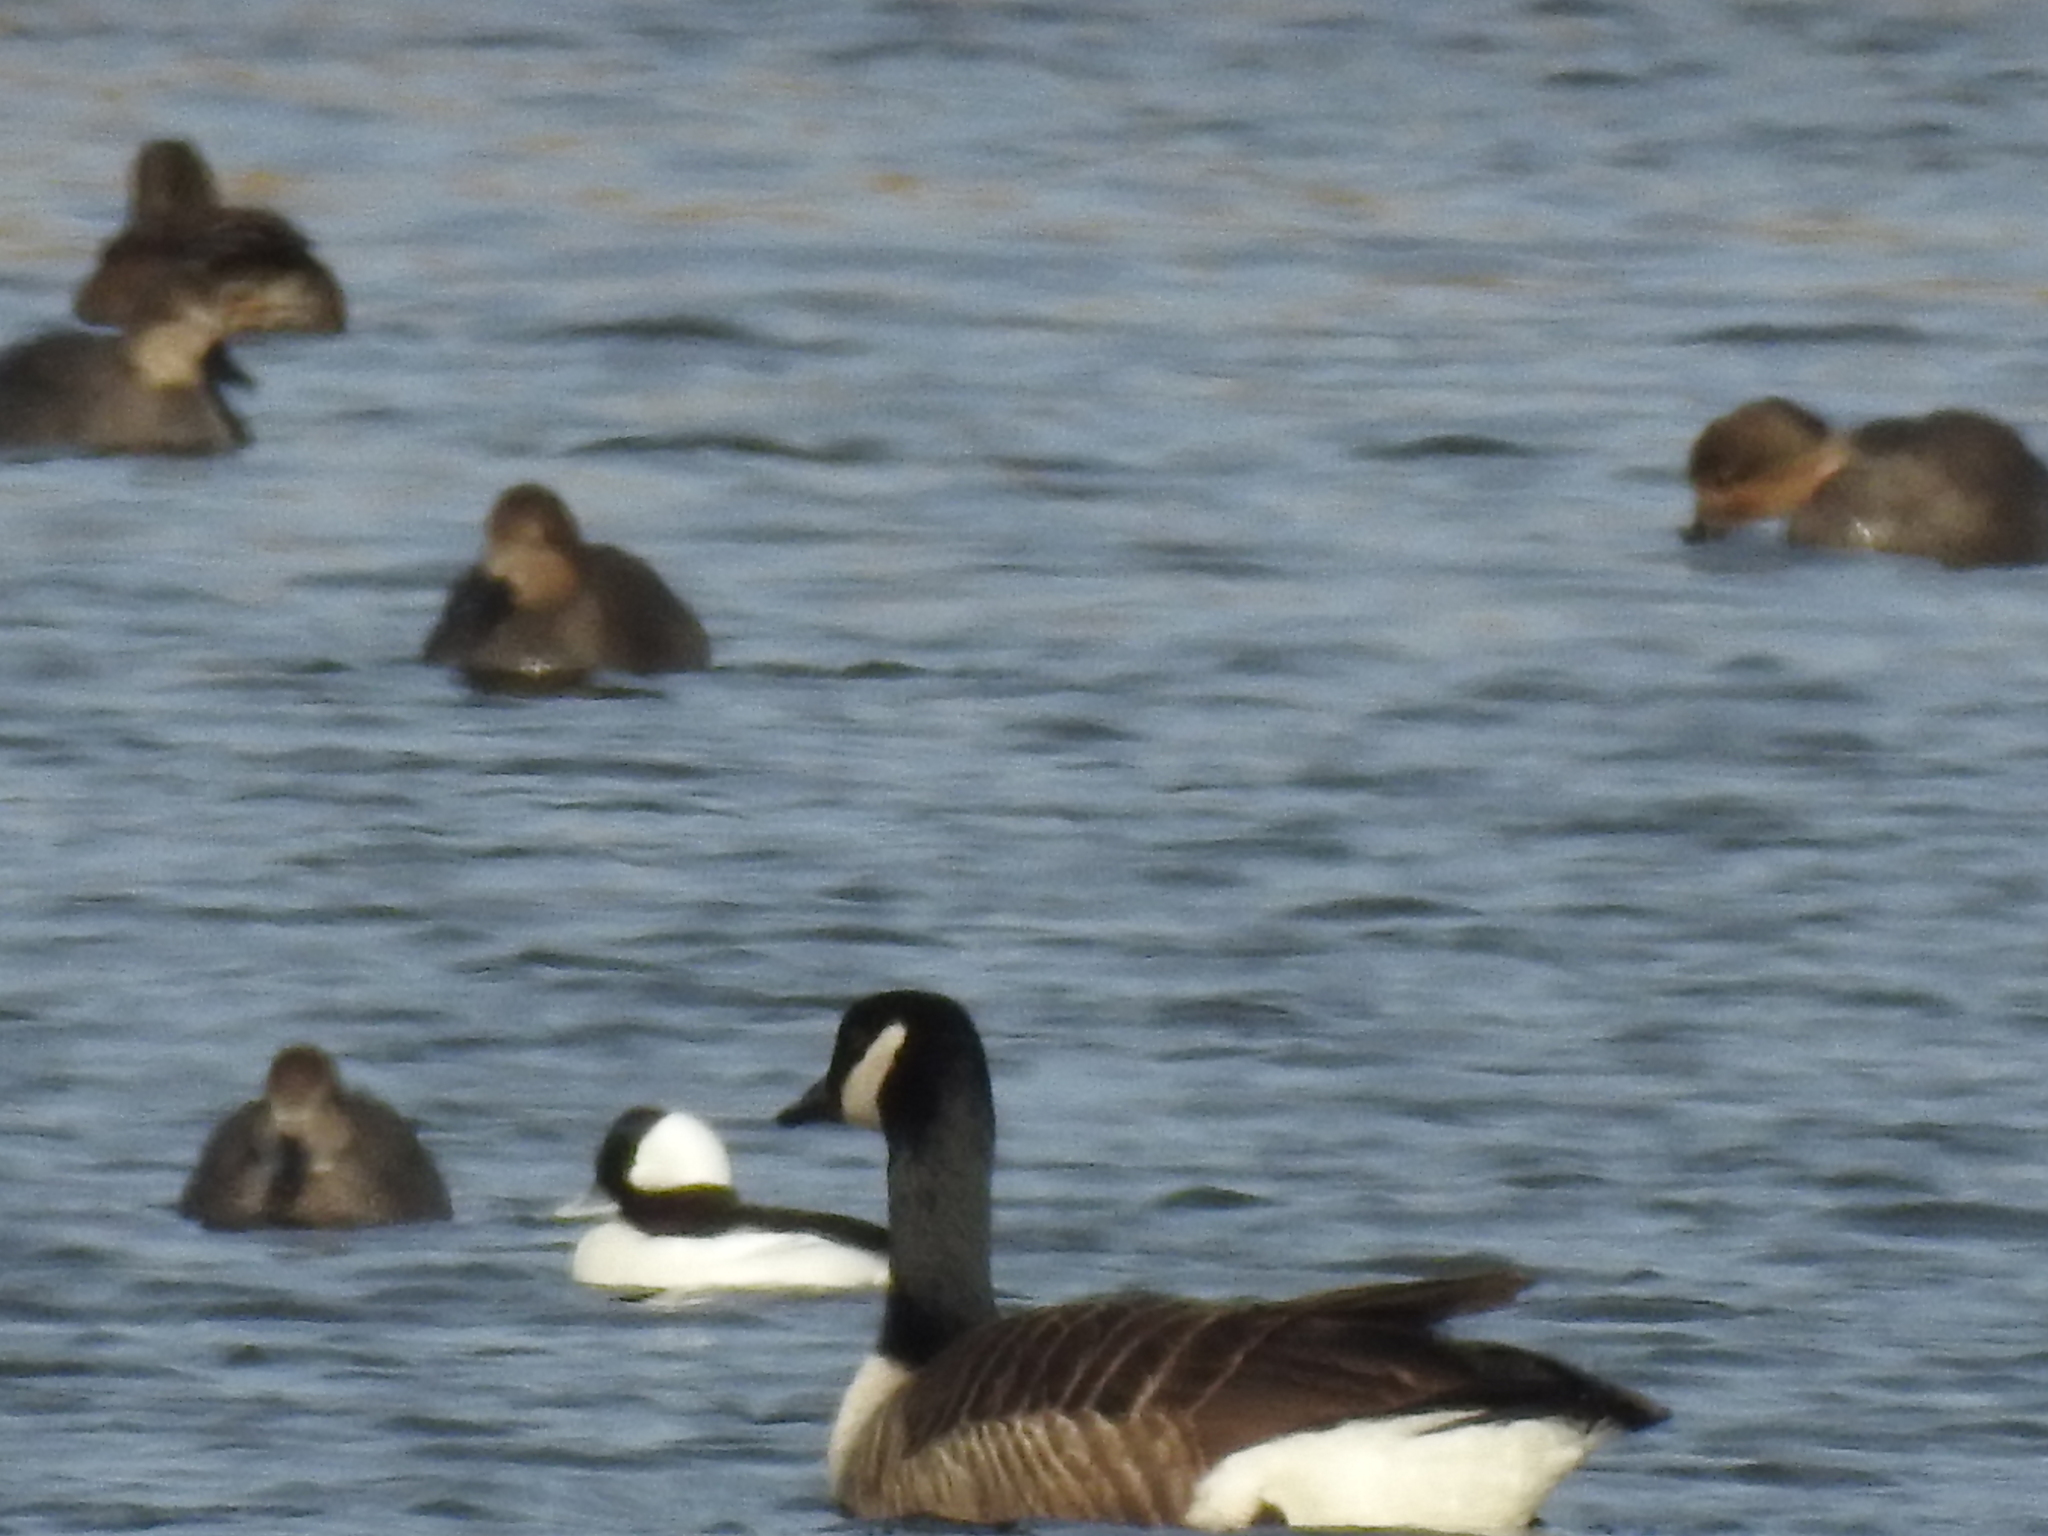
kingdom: Animalia
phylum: Chordata
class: Aves
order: Anseriformes
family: Anatidae
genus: Bucephala
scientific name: Bucephala albeola
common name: Bufflehead
